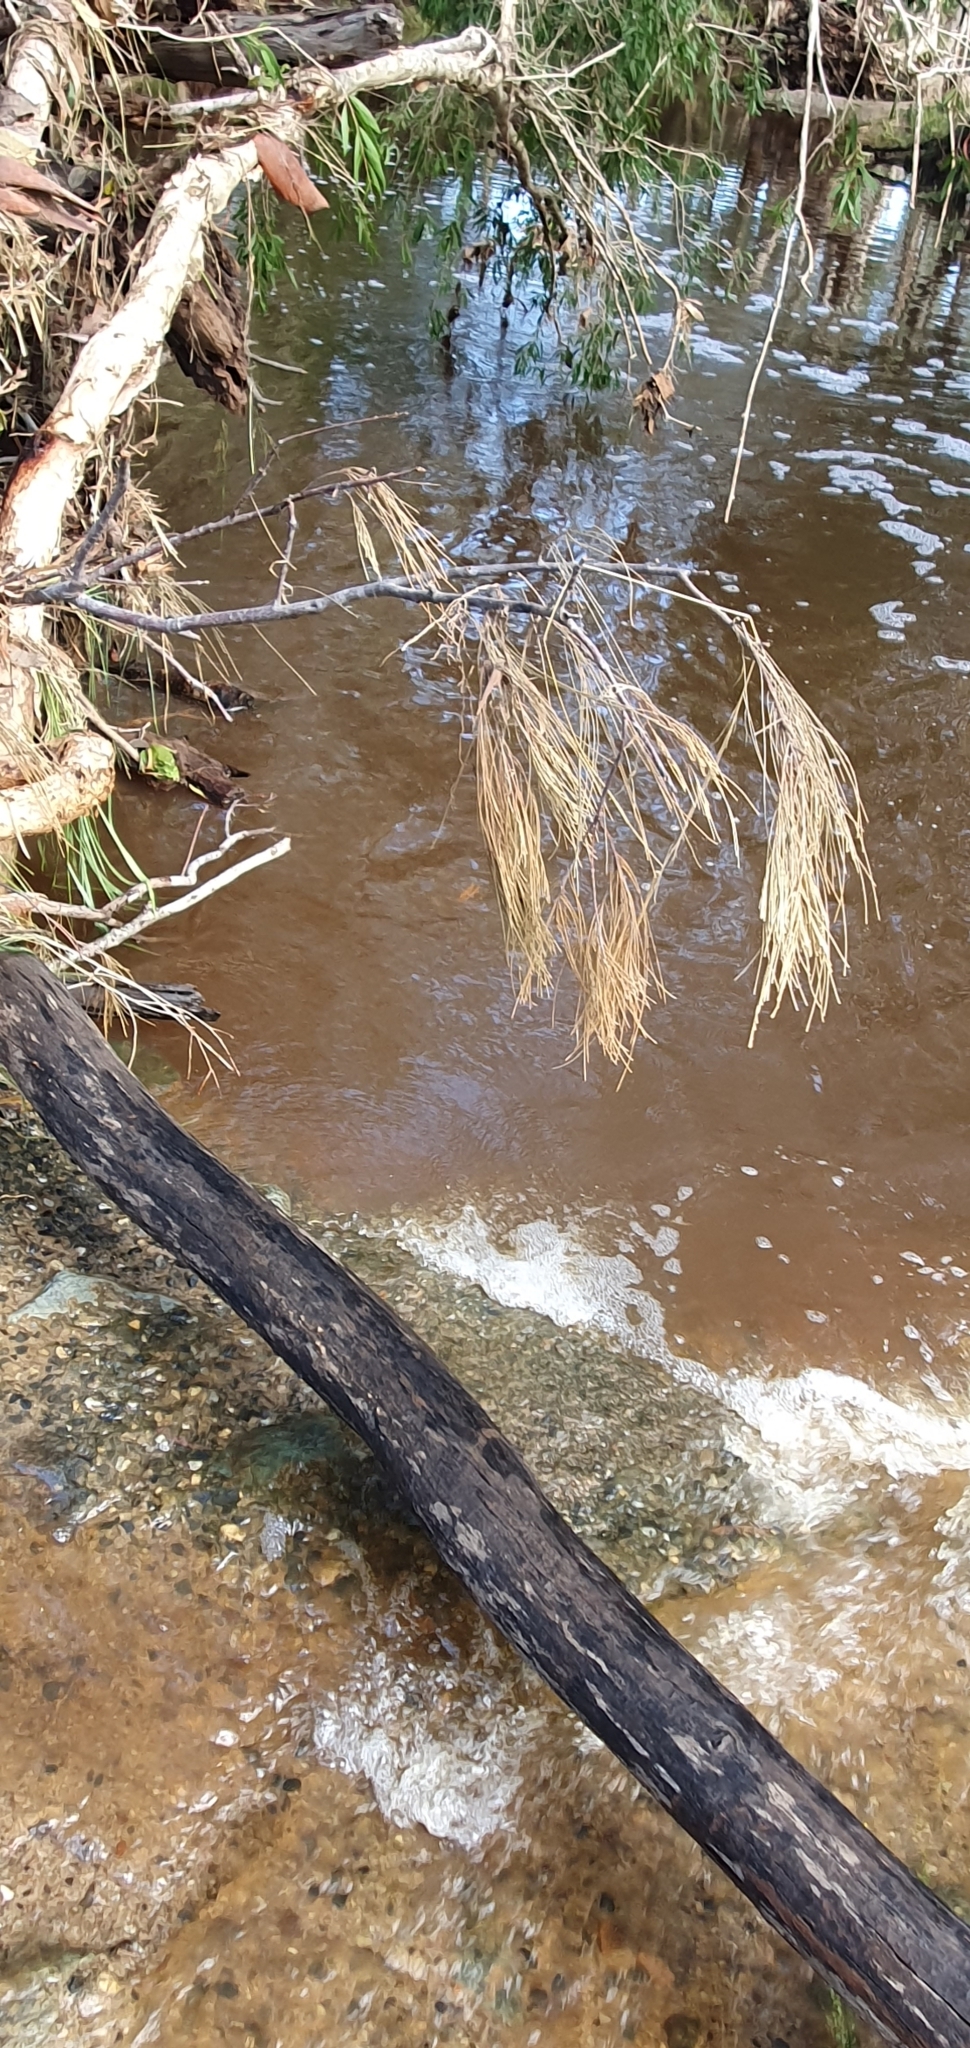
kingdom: Animalia
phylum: Chordata
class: Amphibia
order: Anura
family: Pelodryadidae
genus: Ranoidea
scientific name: Ranoidea caerulea
